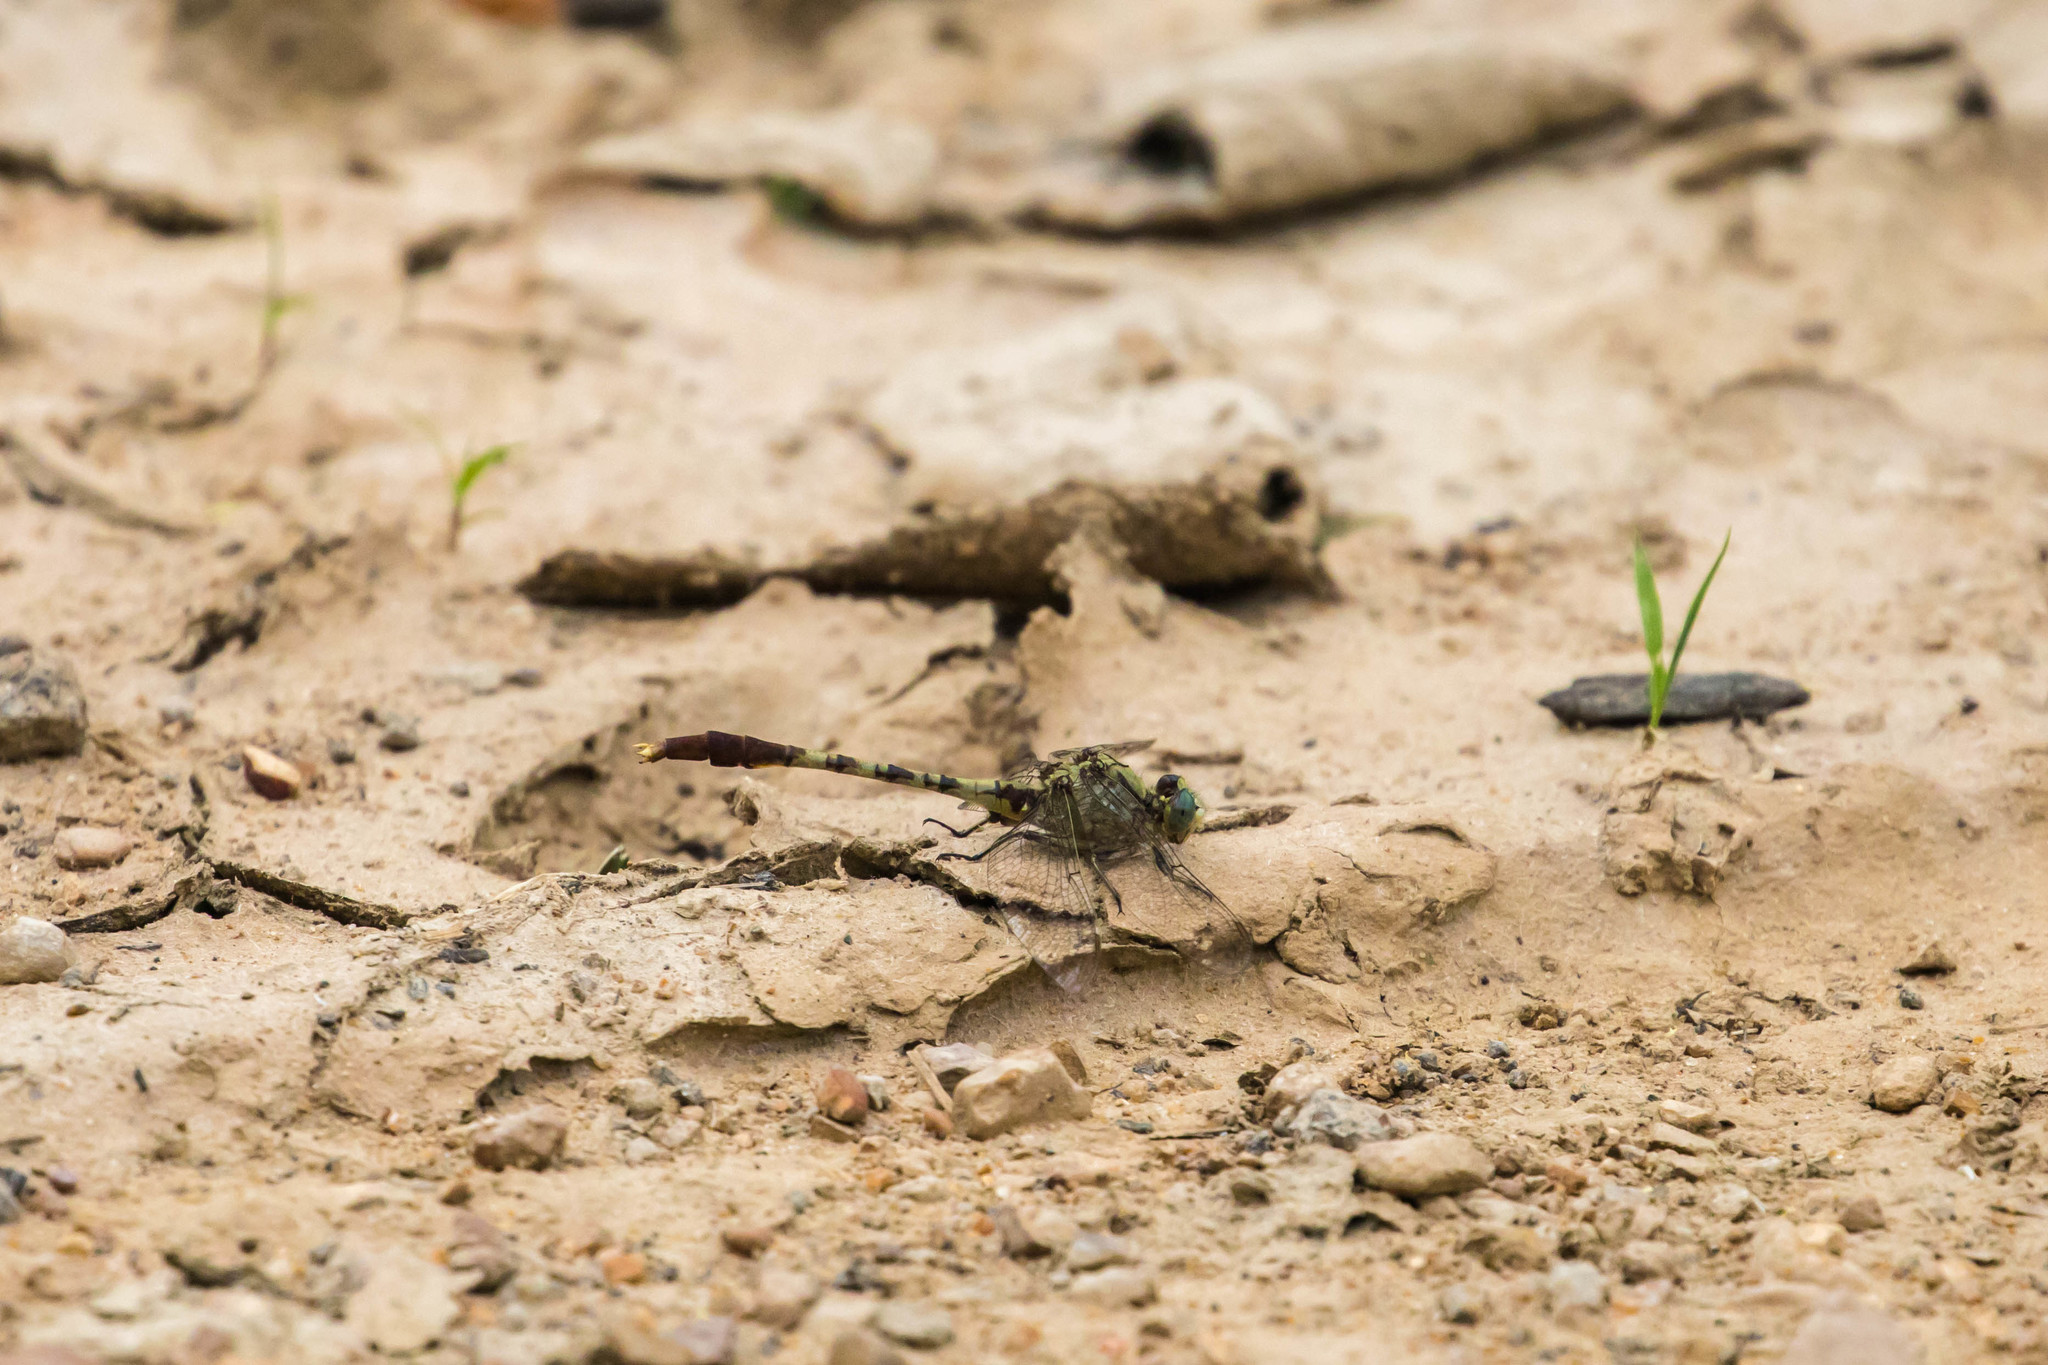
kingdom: Animalia
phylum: Arthropoda
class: Insecta
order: Odonata
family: Gomphidae
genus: Arigomphus
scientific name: Arigomphus submedianus
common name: Jade clubtail
